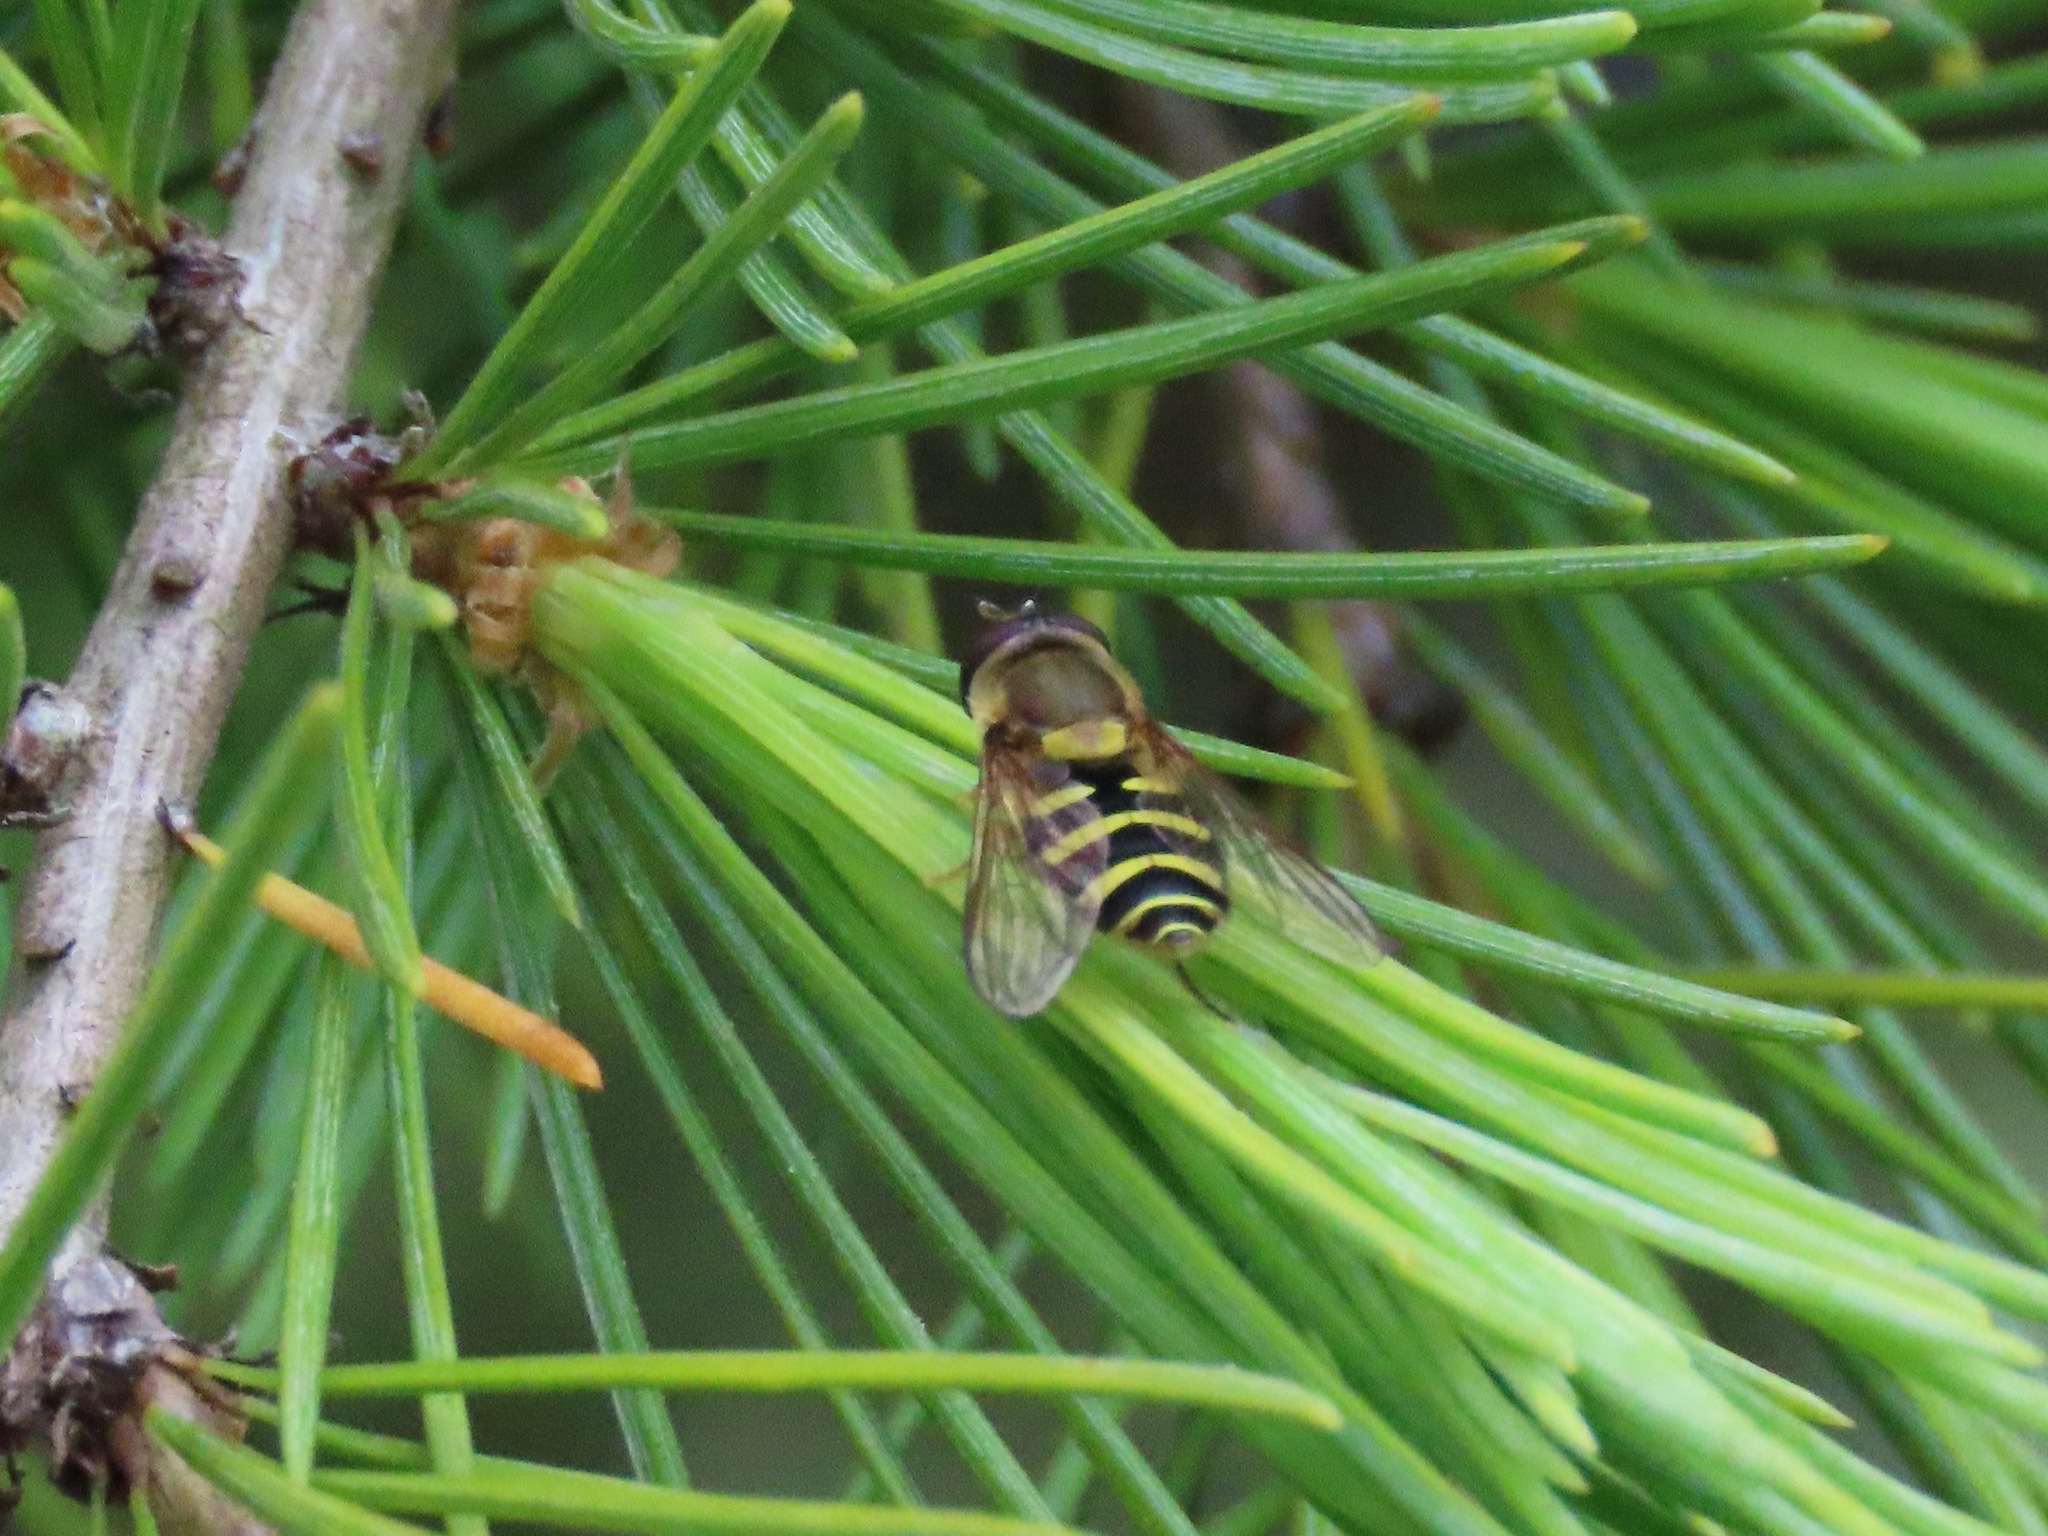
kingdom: Animalia
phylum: Arthropoda
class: Insecta
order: Diptera
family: Syrphidae
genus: Syrphus
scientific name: Syrphus opinator
